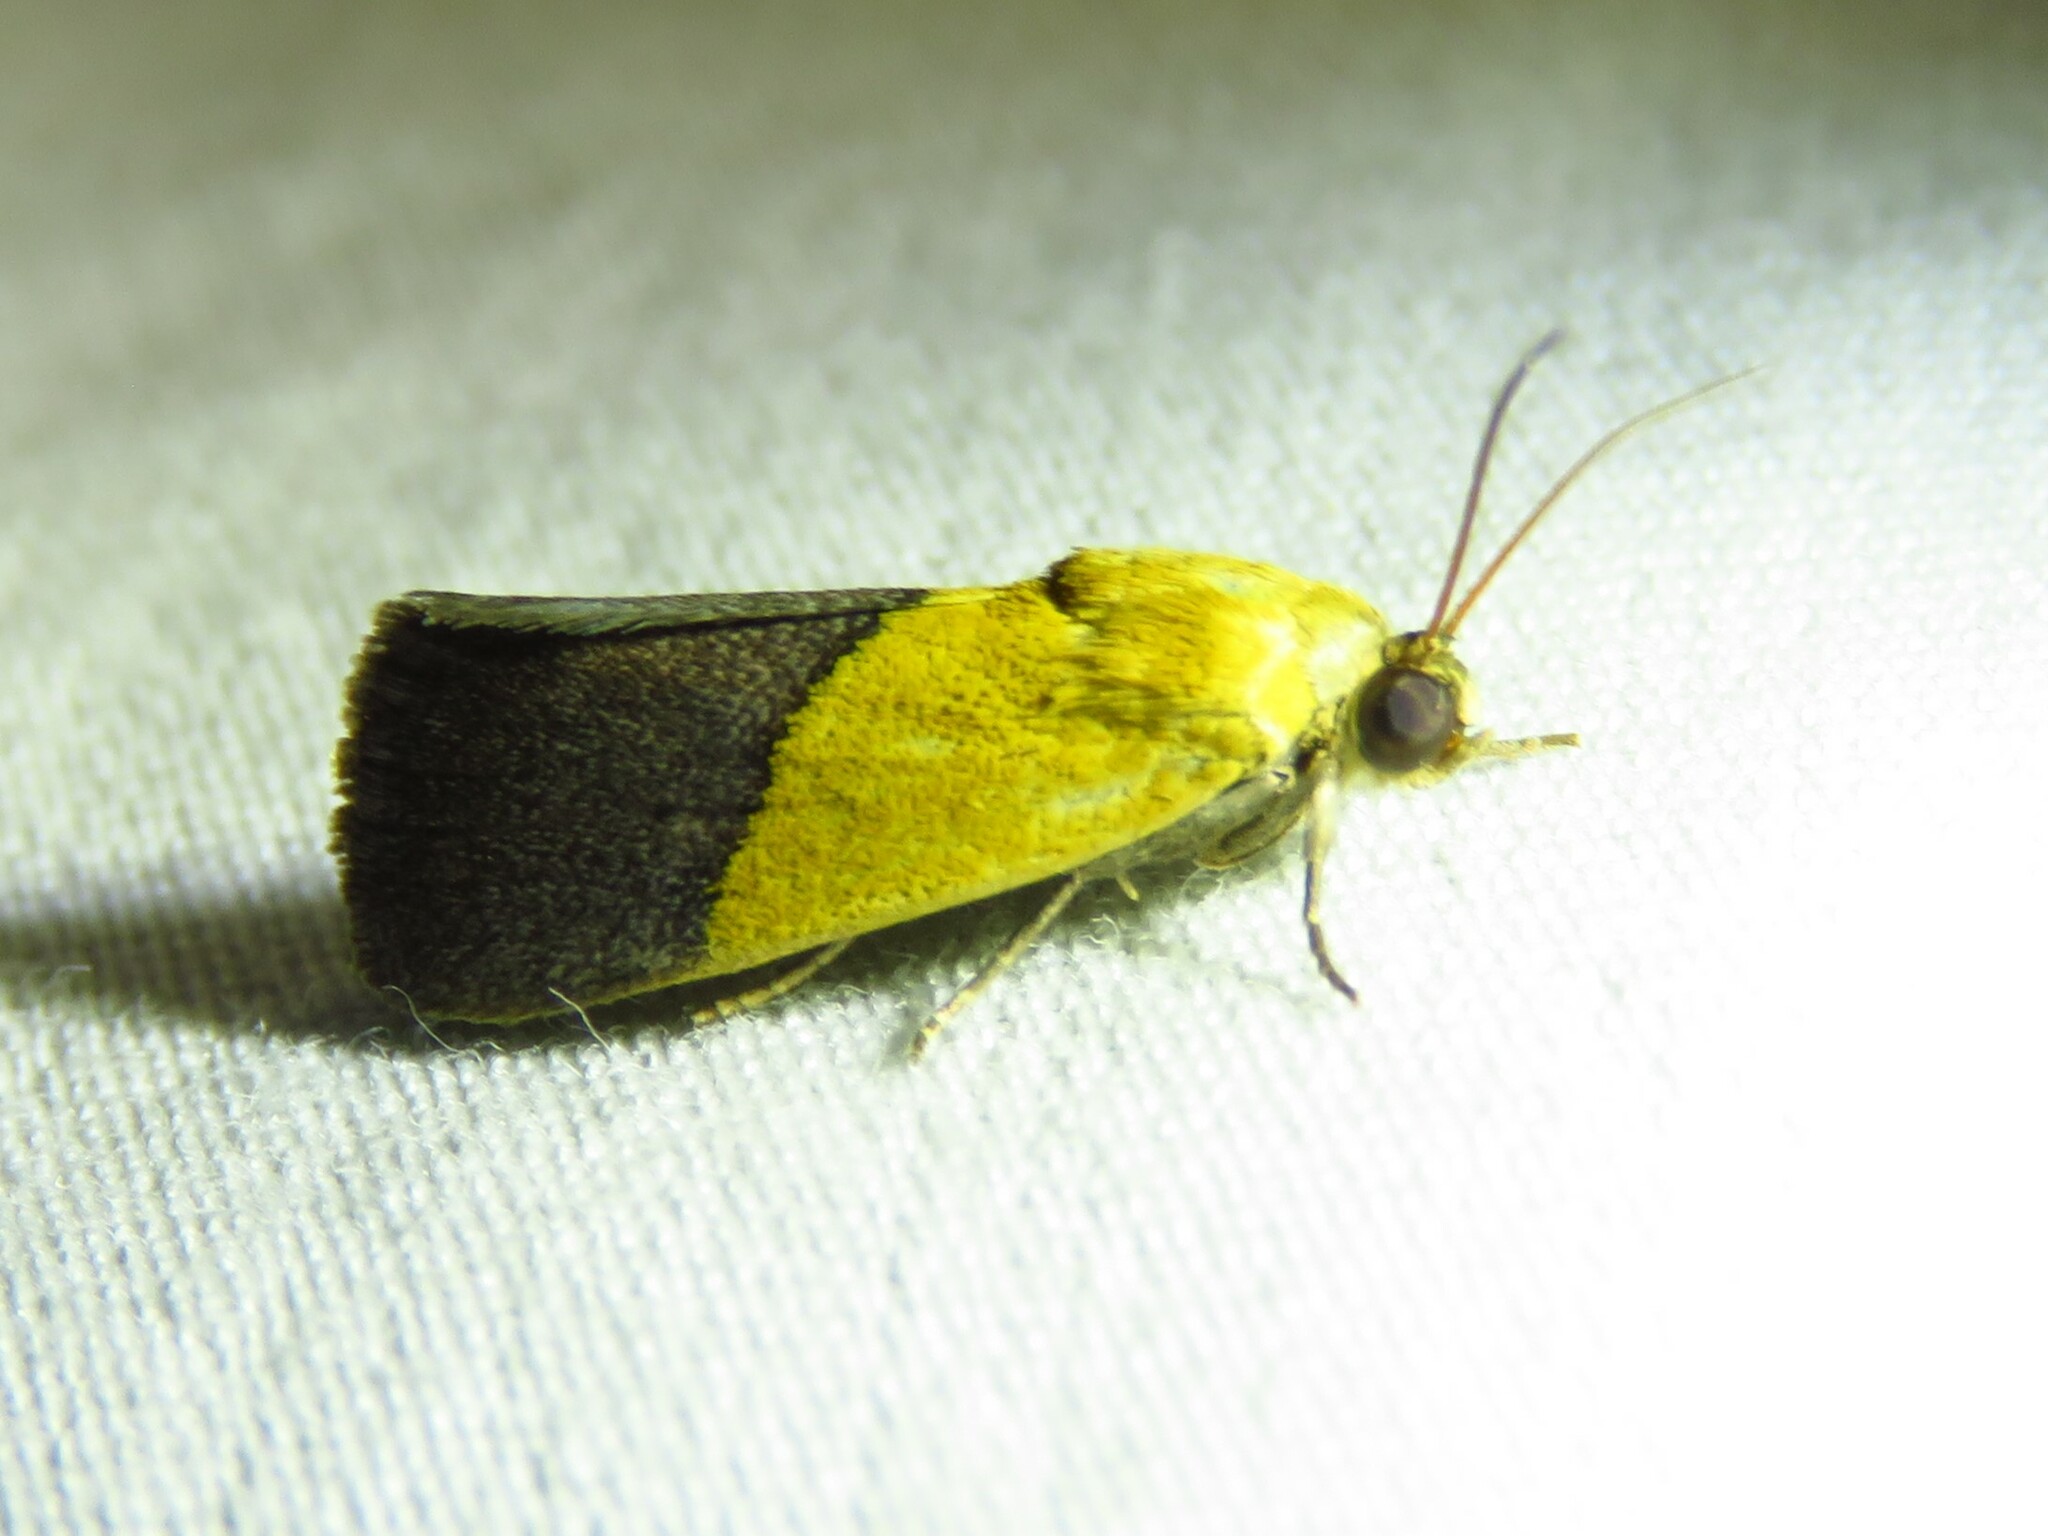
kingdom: Animalia
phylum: Arthropoda
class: Insecta
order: Lepidoptera
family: Noctuidae
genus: Acontia
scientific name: Acontia semiflava
